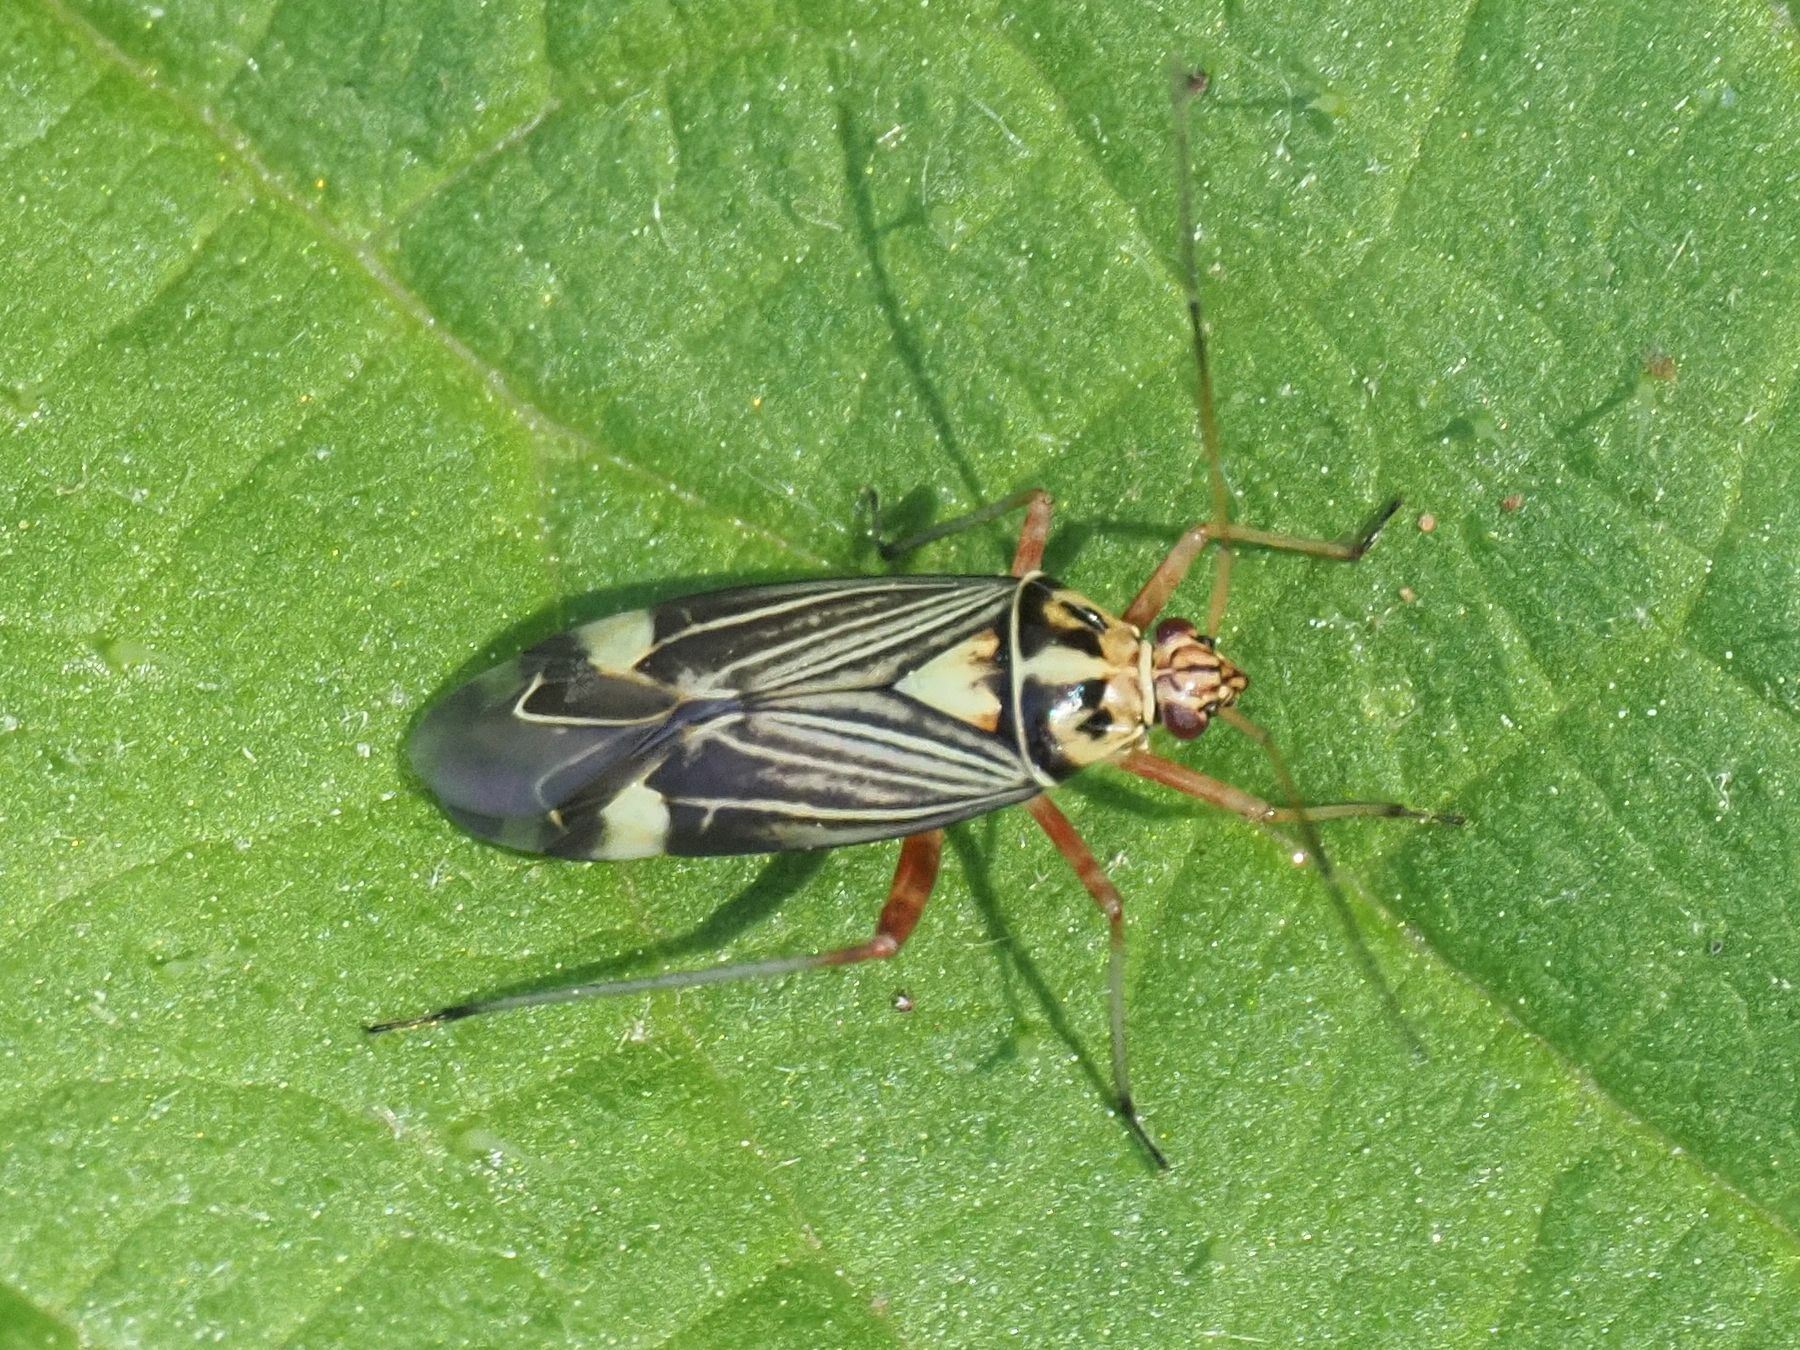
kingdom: Animalia
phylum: Arthropoda
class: Insecta
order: Hemiptera
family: Miridae
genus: Rhabdomiris
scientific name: Rhabdomiris striatellus
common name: Plant bug
